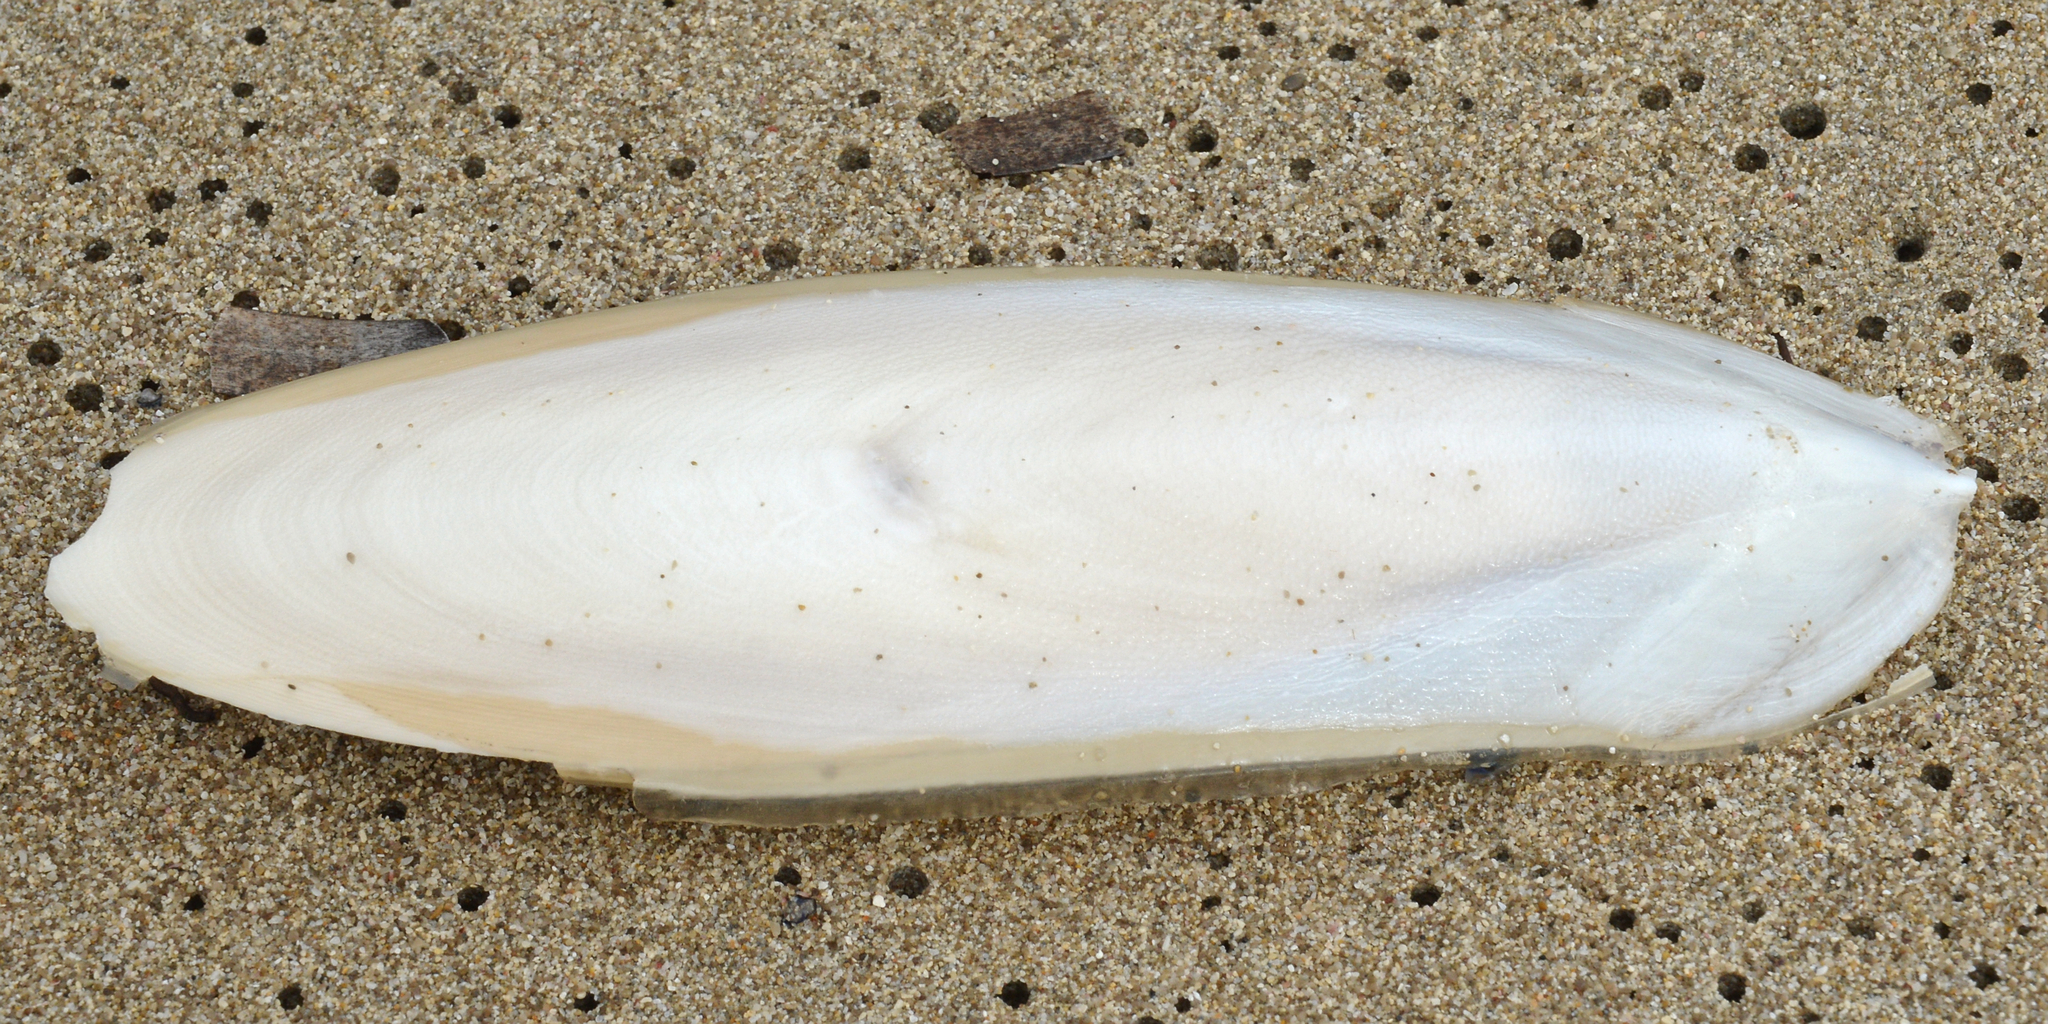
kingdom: Animalia
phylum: Mollusca
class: Cephalopoda
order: Sepiida
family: Sepiidae
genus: Sepia
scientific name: Sepia officinalis
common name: Common cuttlefish
